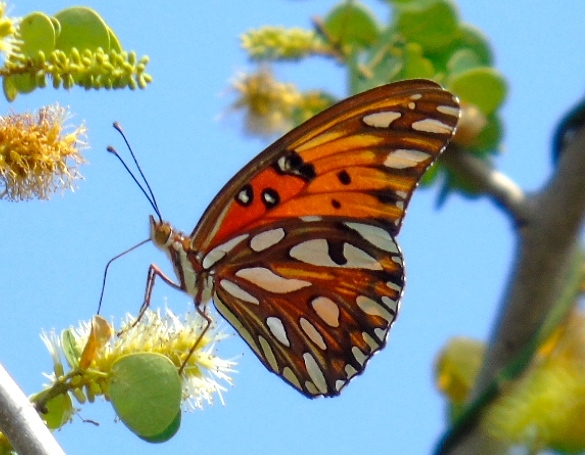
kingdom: Animalia
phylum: Arthropoda
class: Insecta
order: Lepidoptera
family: Nymphalidae
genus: Dione
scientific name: Dione vanillae
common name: Gulf fritillary
